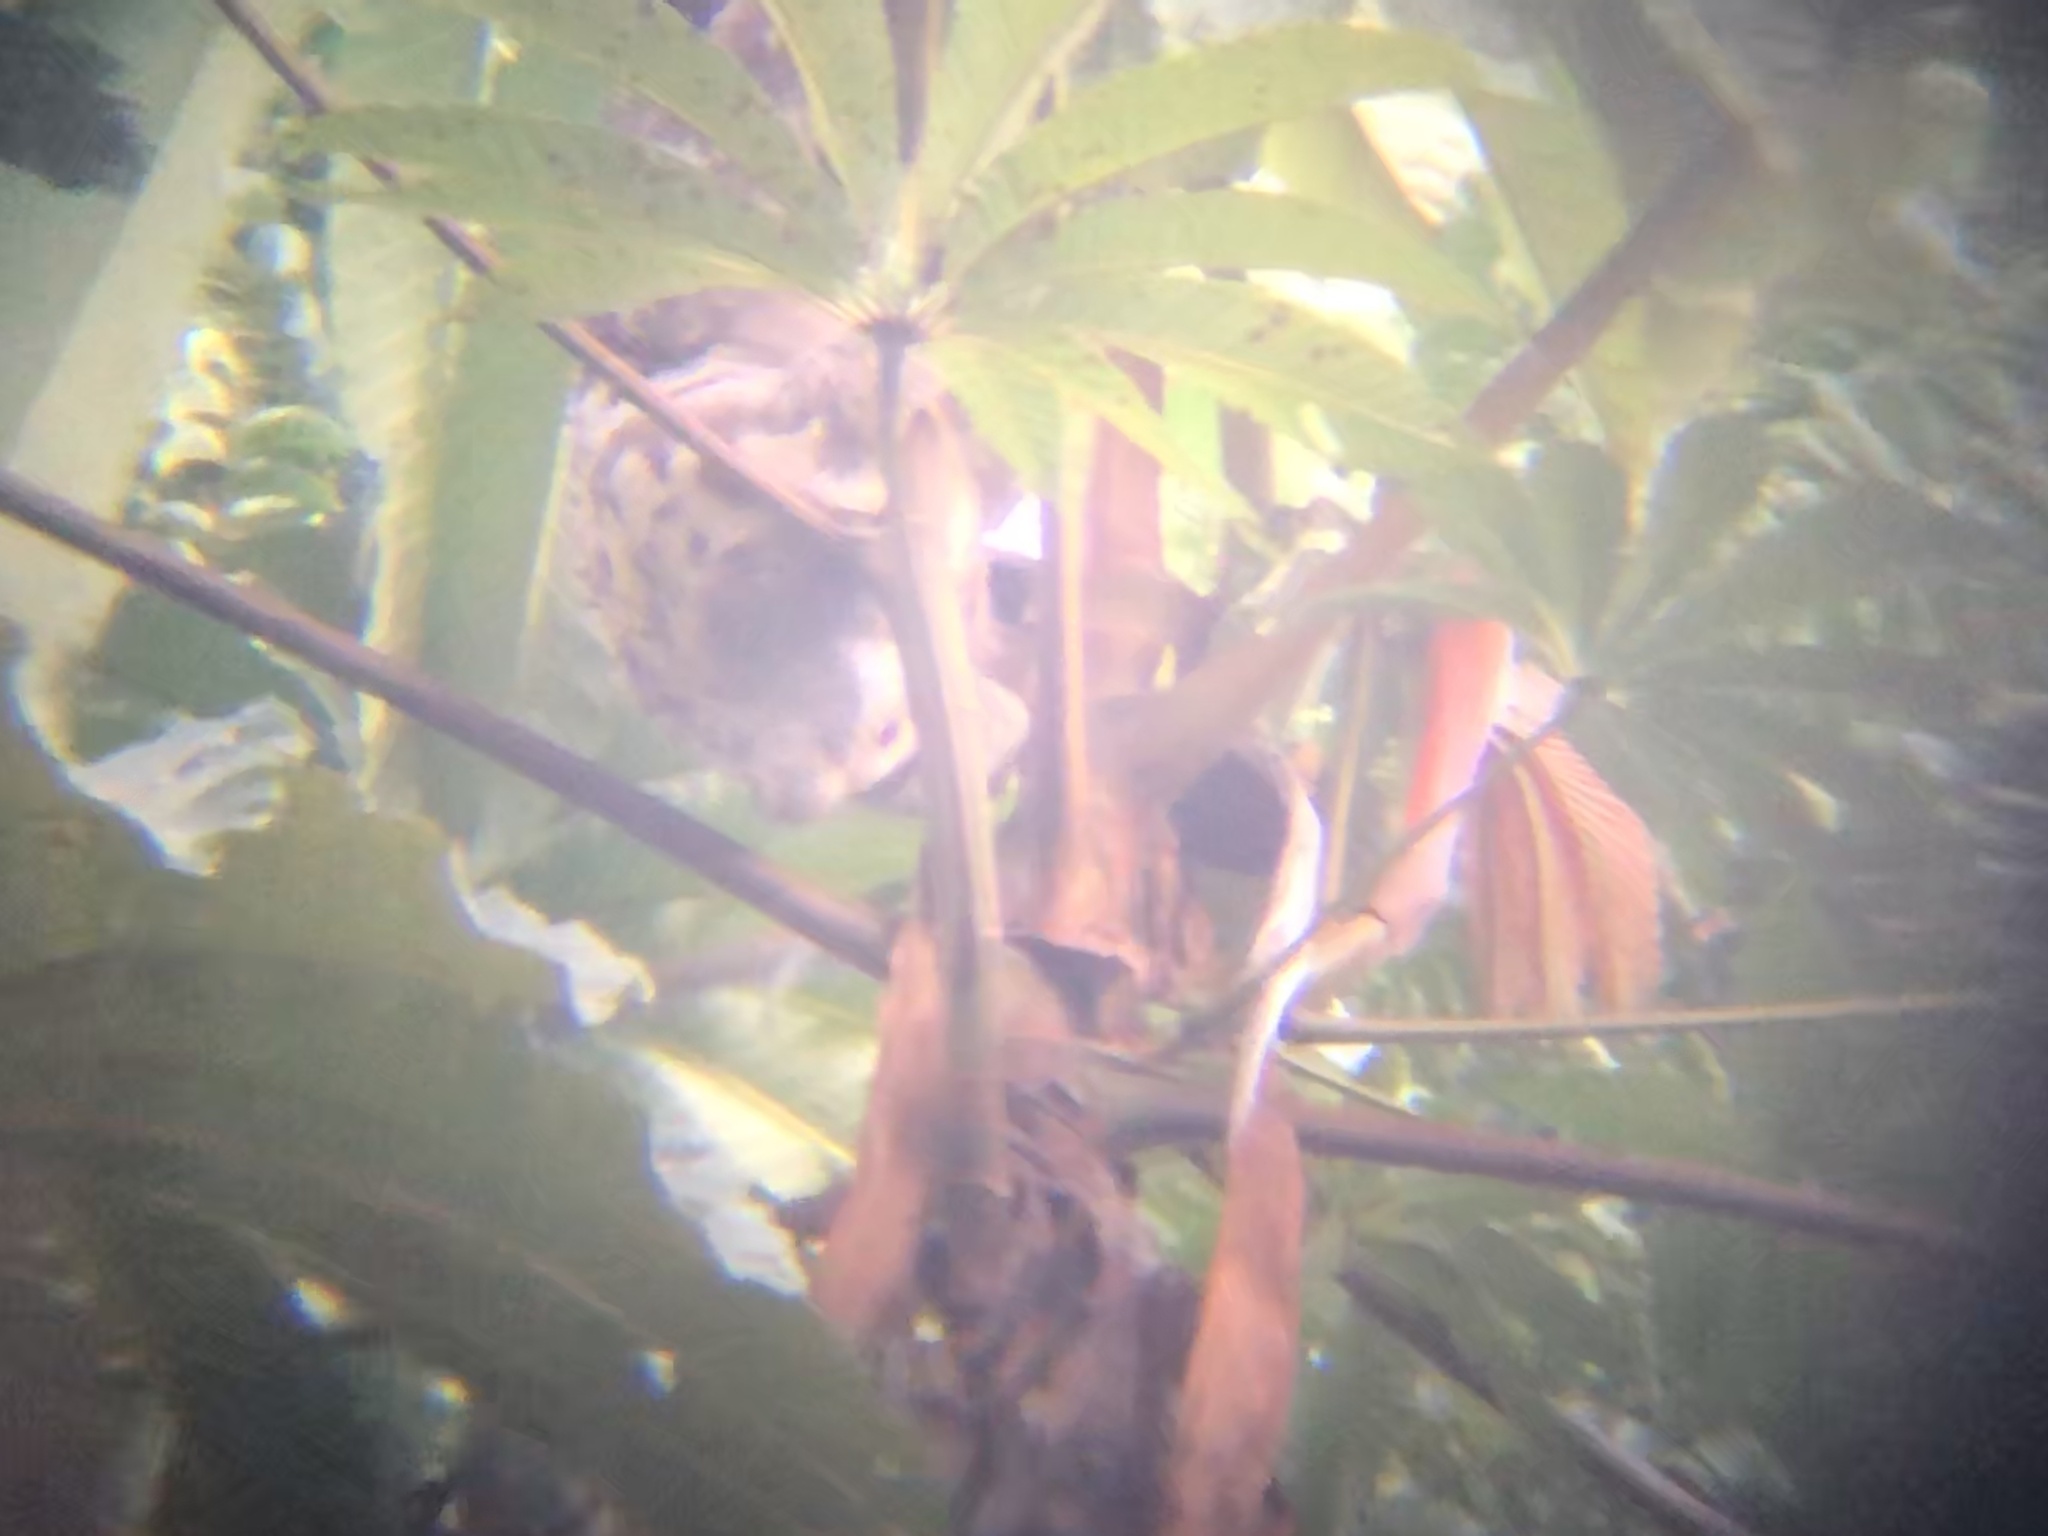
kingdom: Animalia
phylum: Chordata
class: Mammalia
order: Pilosa
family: Bradypodidae
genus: Bradypus
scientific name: Bradypus variegatus
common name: Brown-throated three-toed sloth
